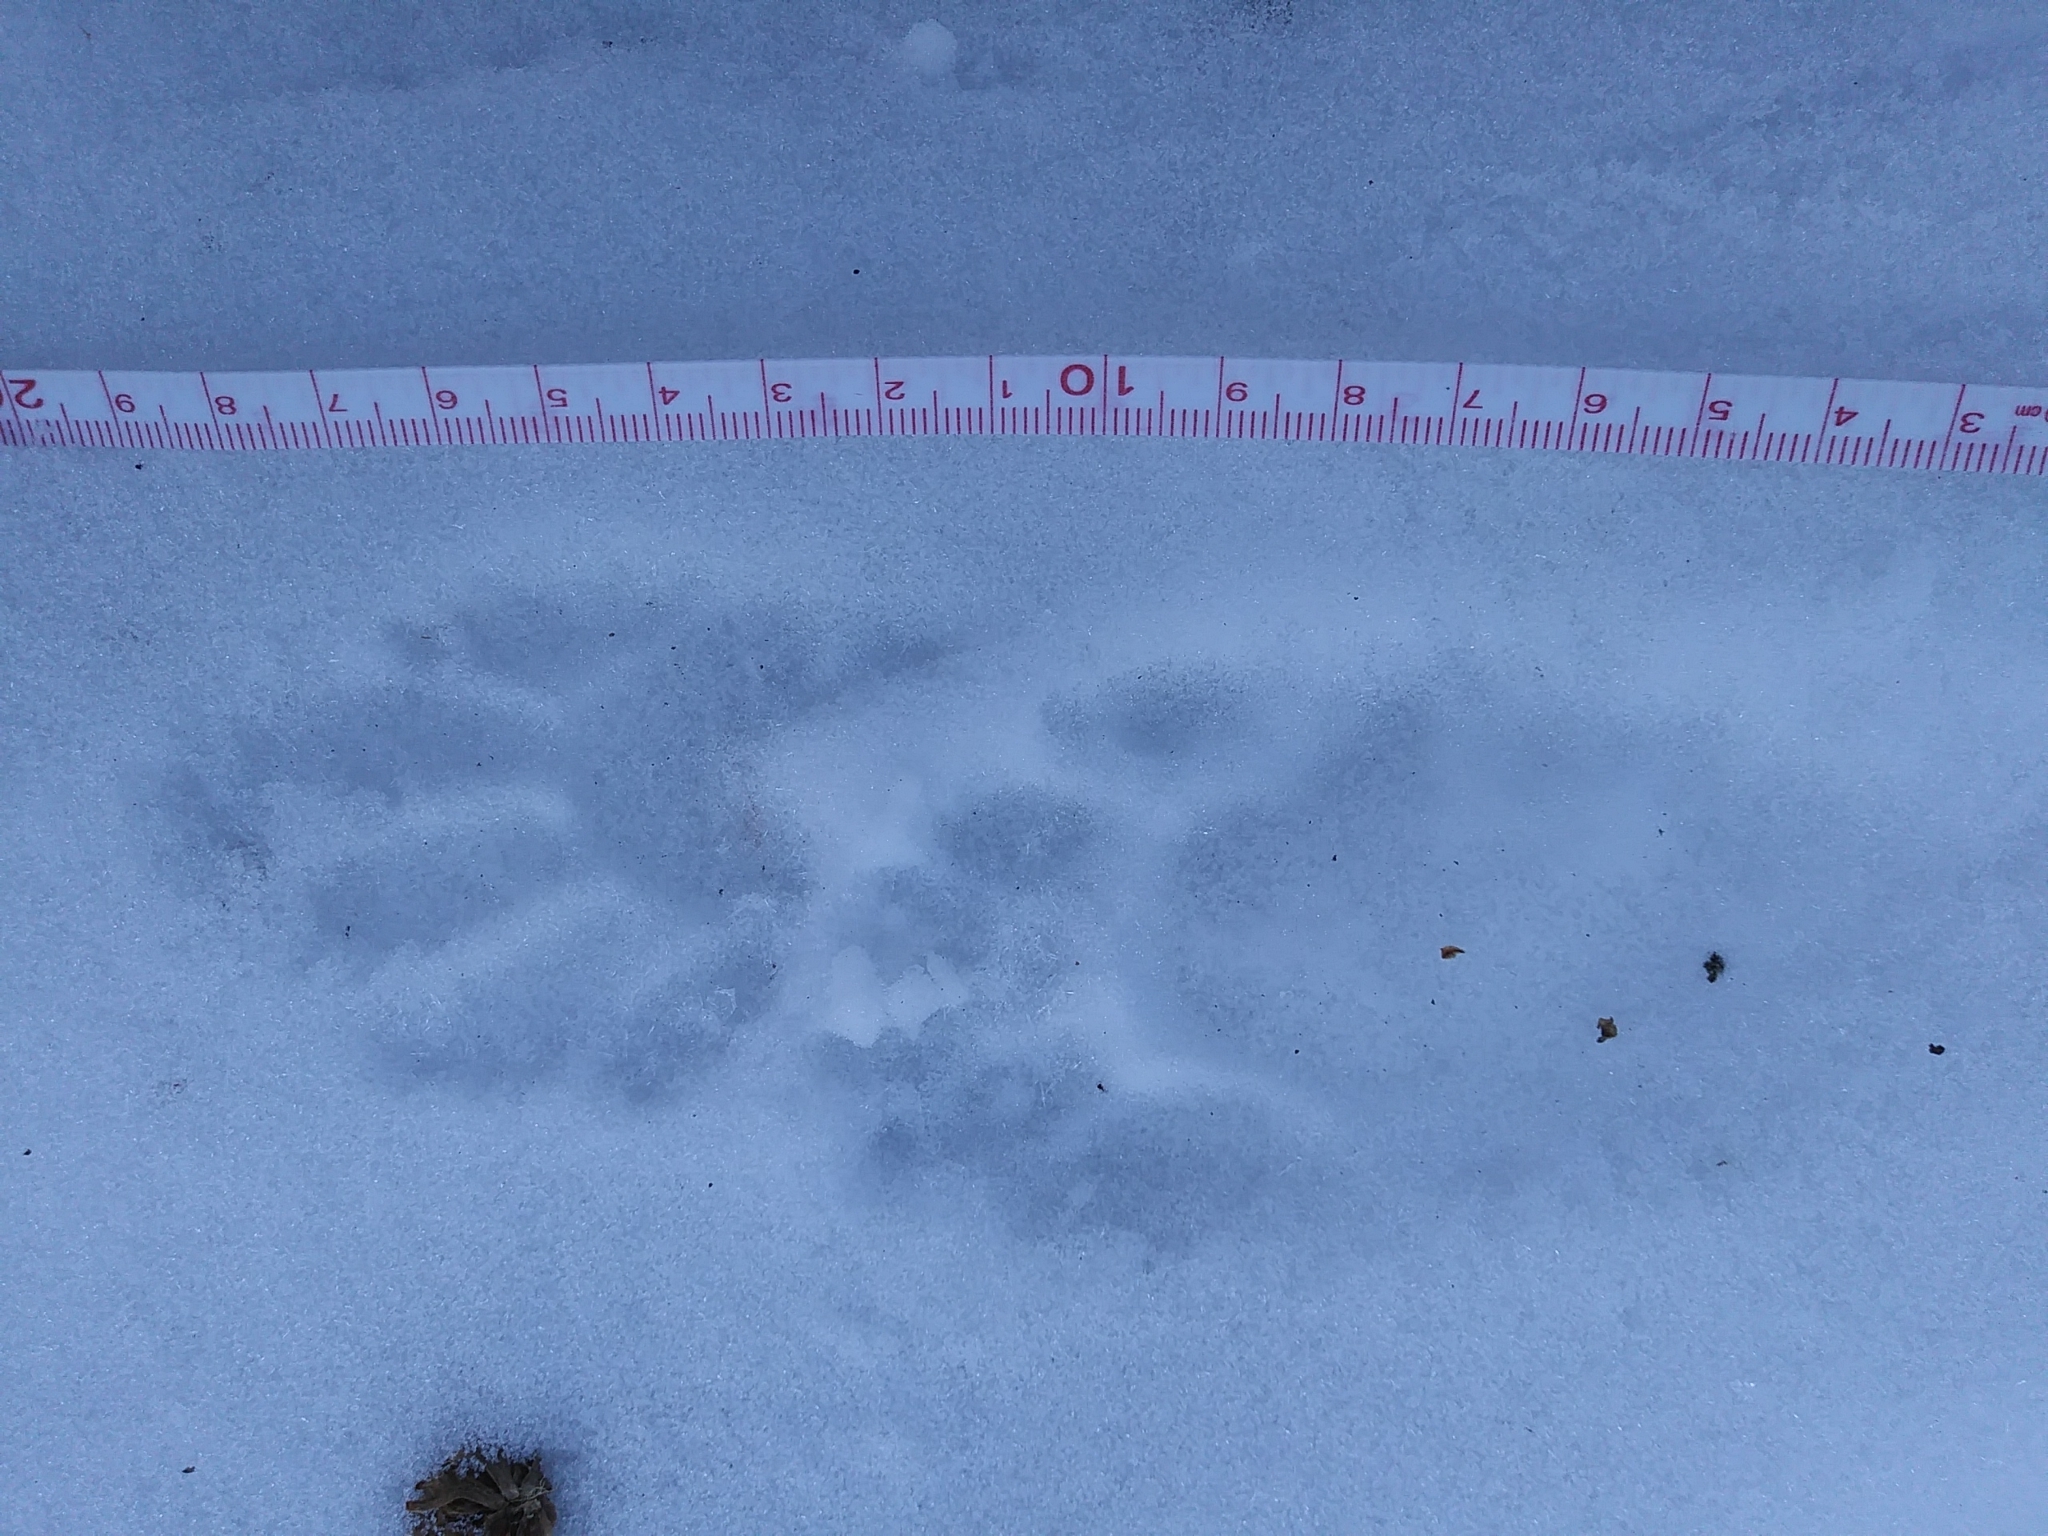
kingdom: Animalia
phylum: Chordata
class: Mammalia
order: Carnivora
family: Procyonidae
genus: Procyon
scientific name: Procyon lotor
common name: Raccoon
